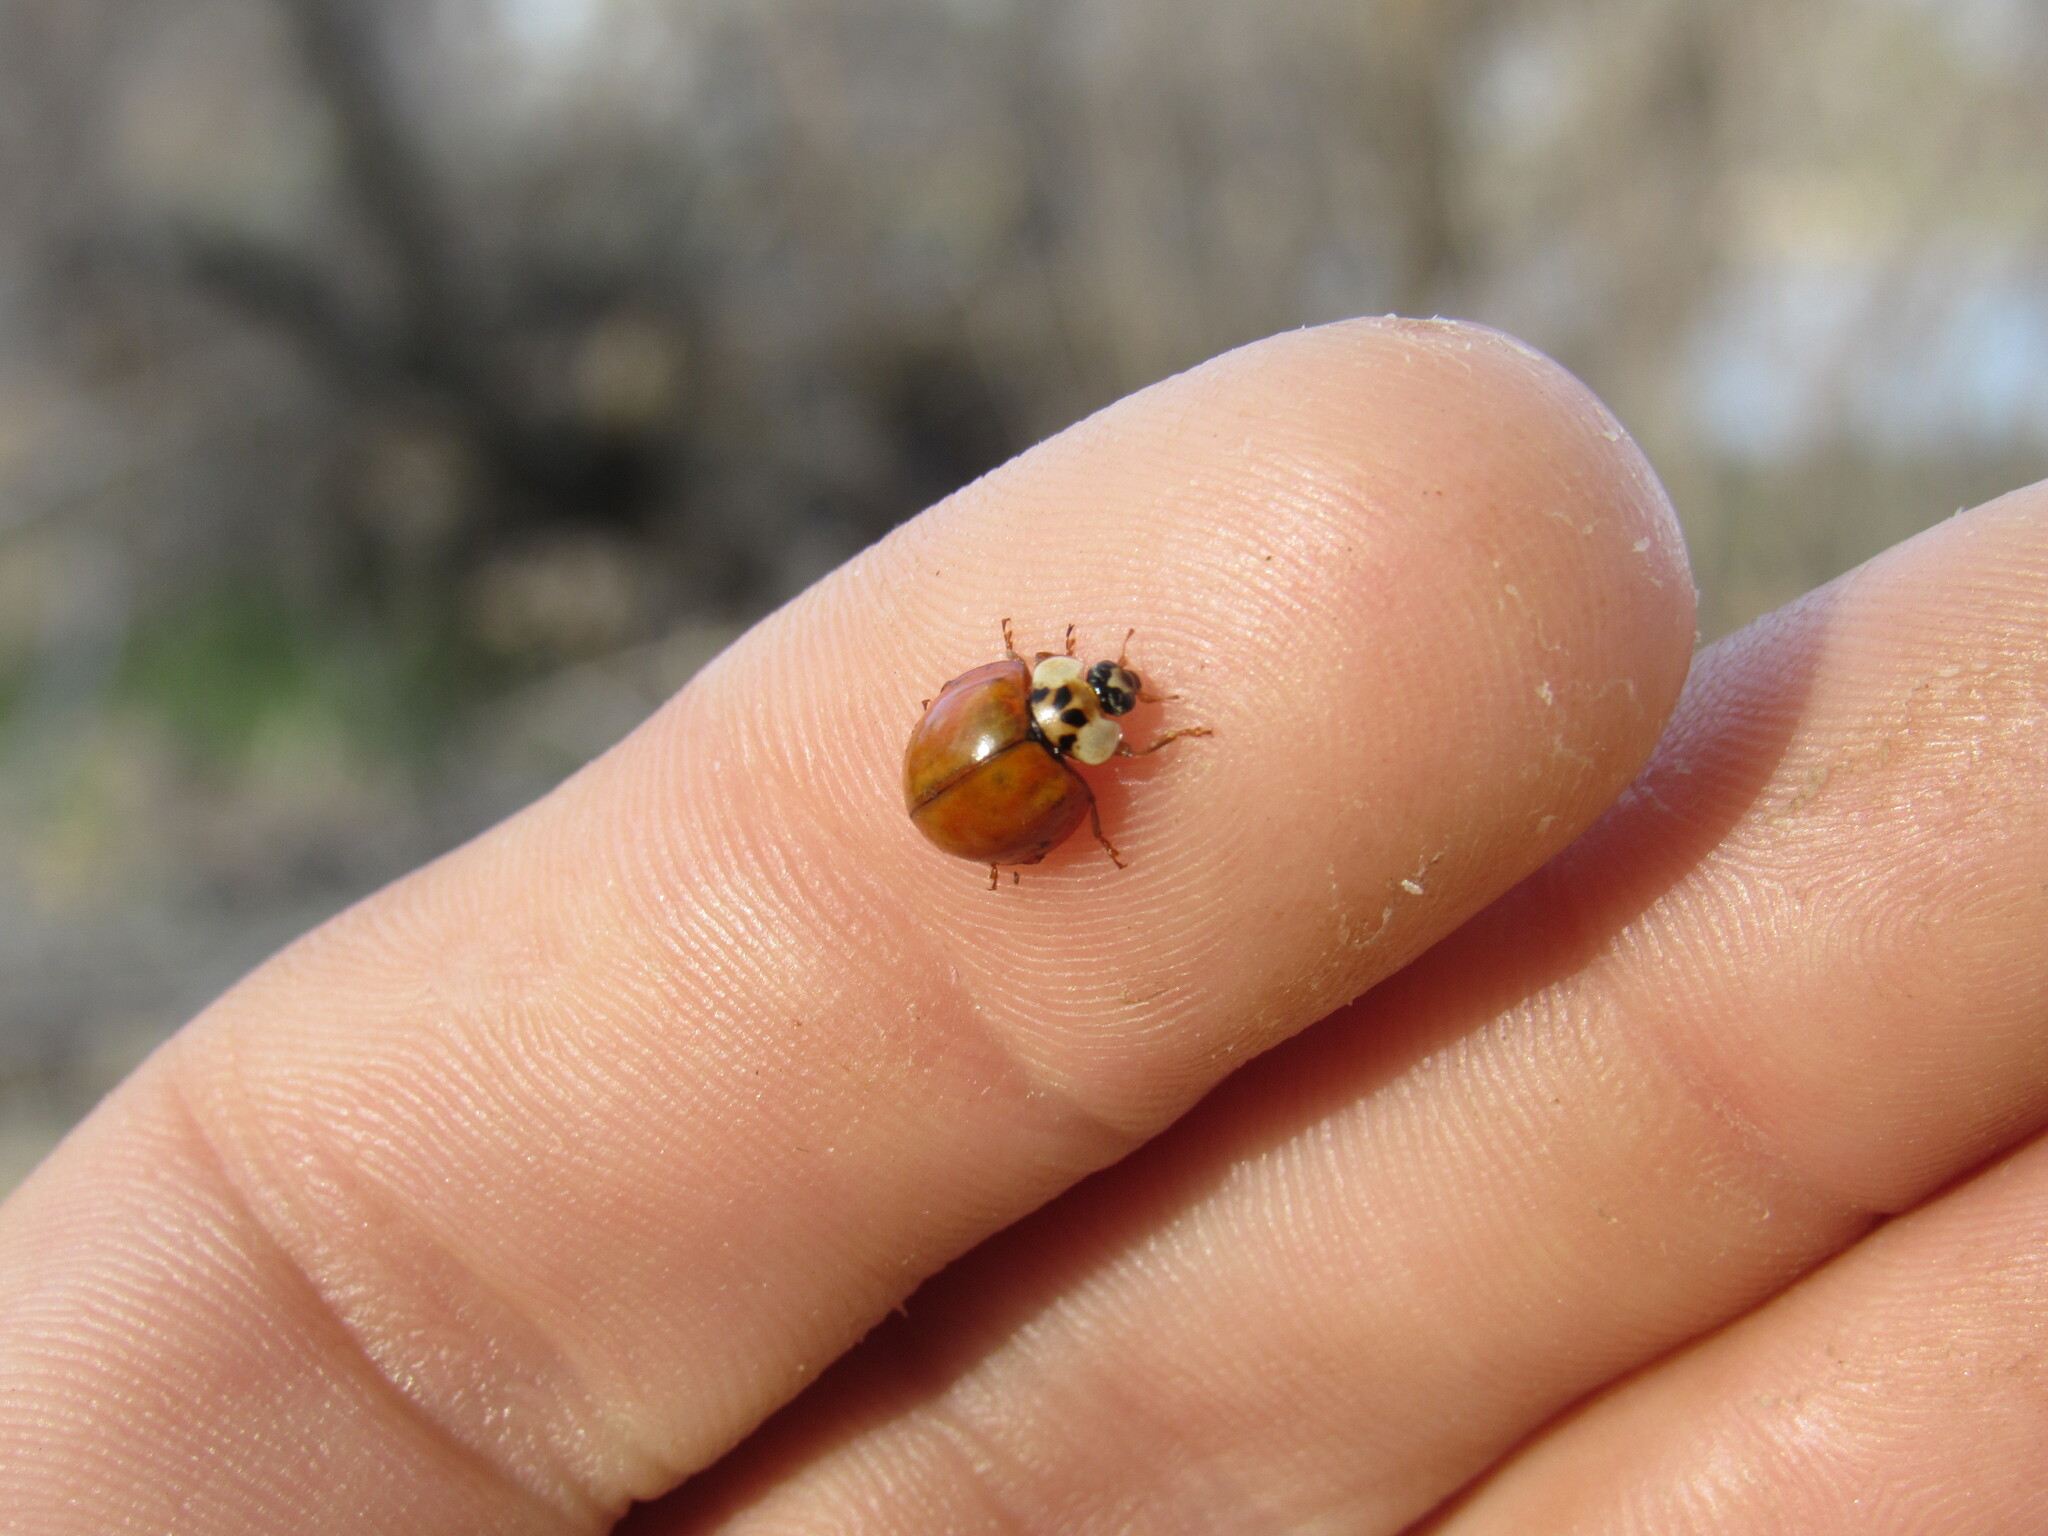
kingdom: Animalia
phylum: Arthropoda
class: Insecta
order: Coleoptera
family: Coccinellidae
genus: Harmonia
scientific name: Harmonia axyridis
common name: Harlequin ladybird
